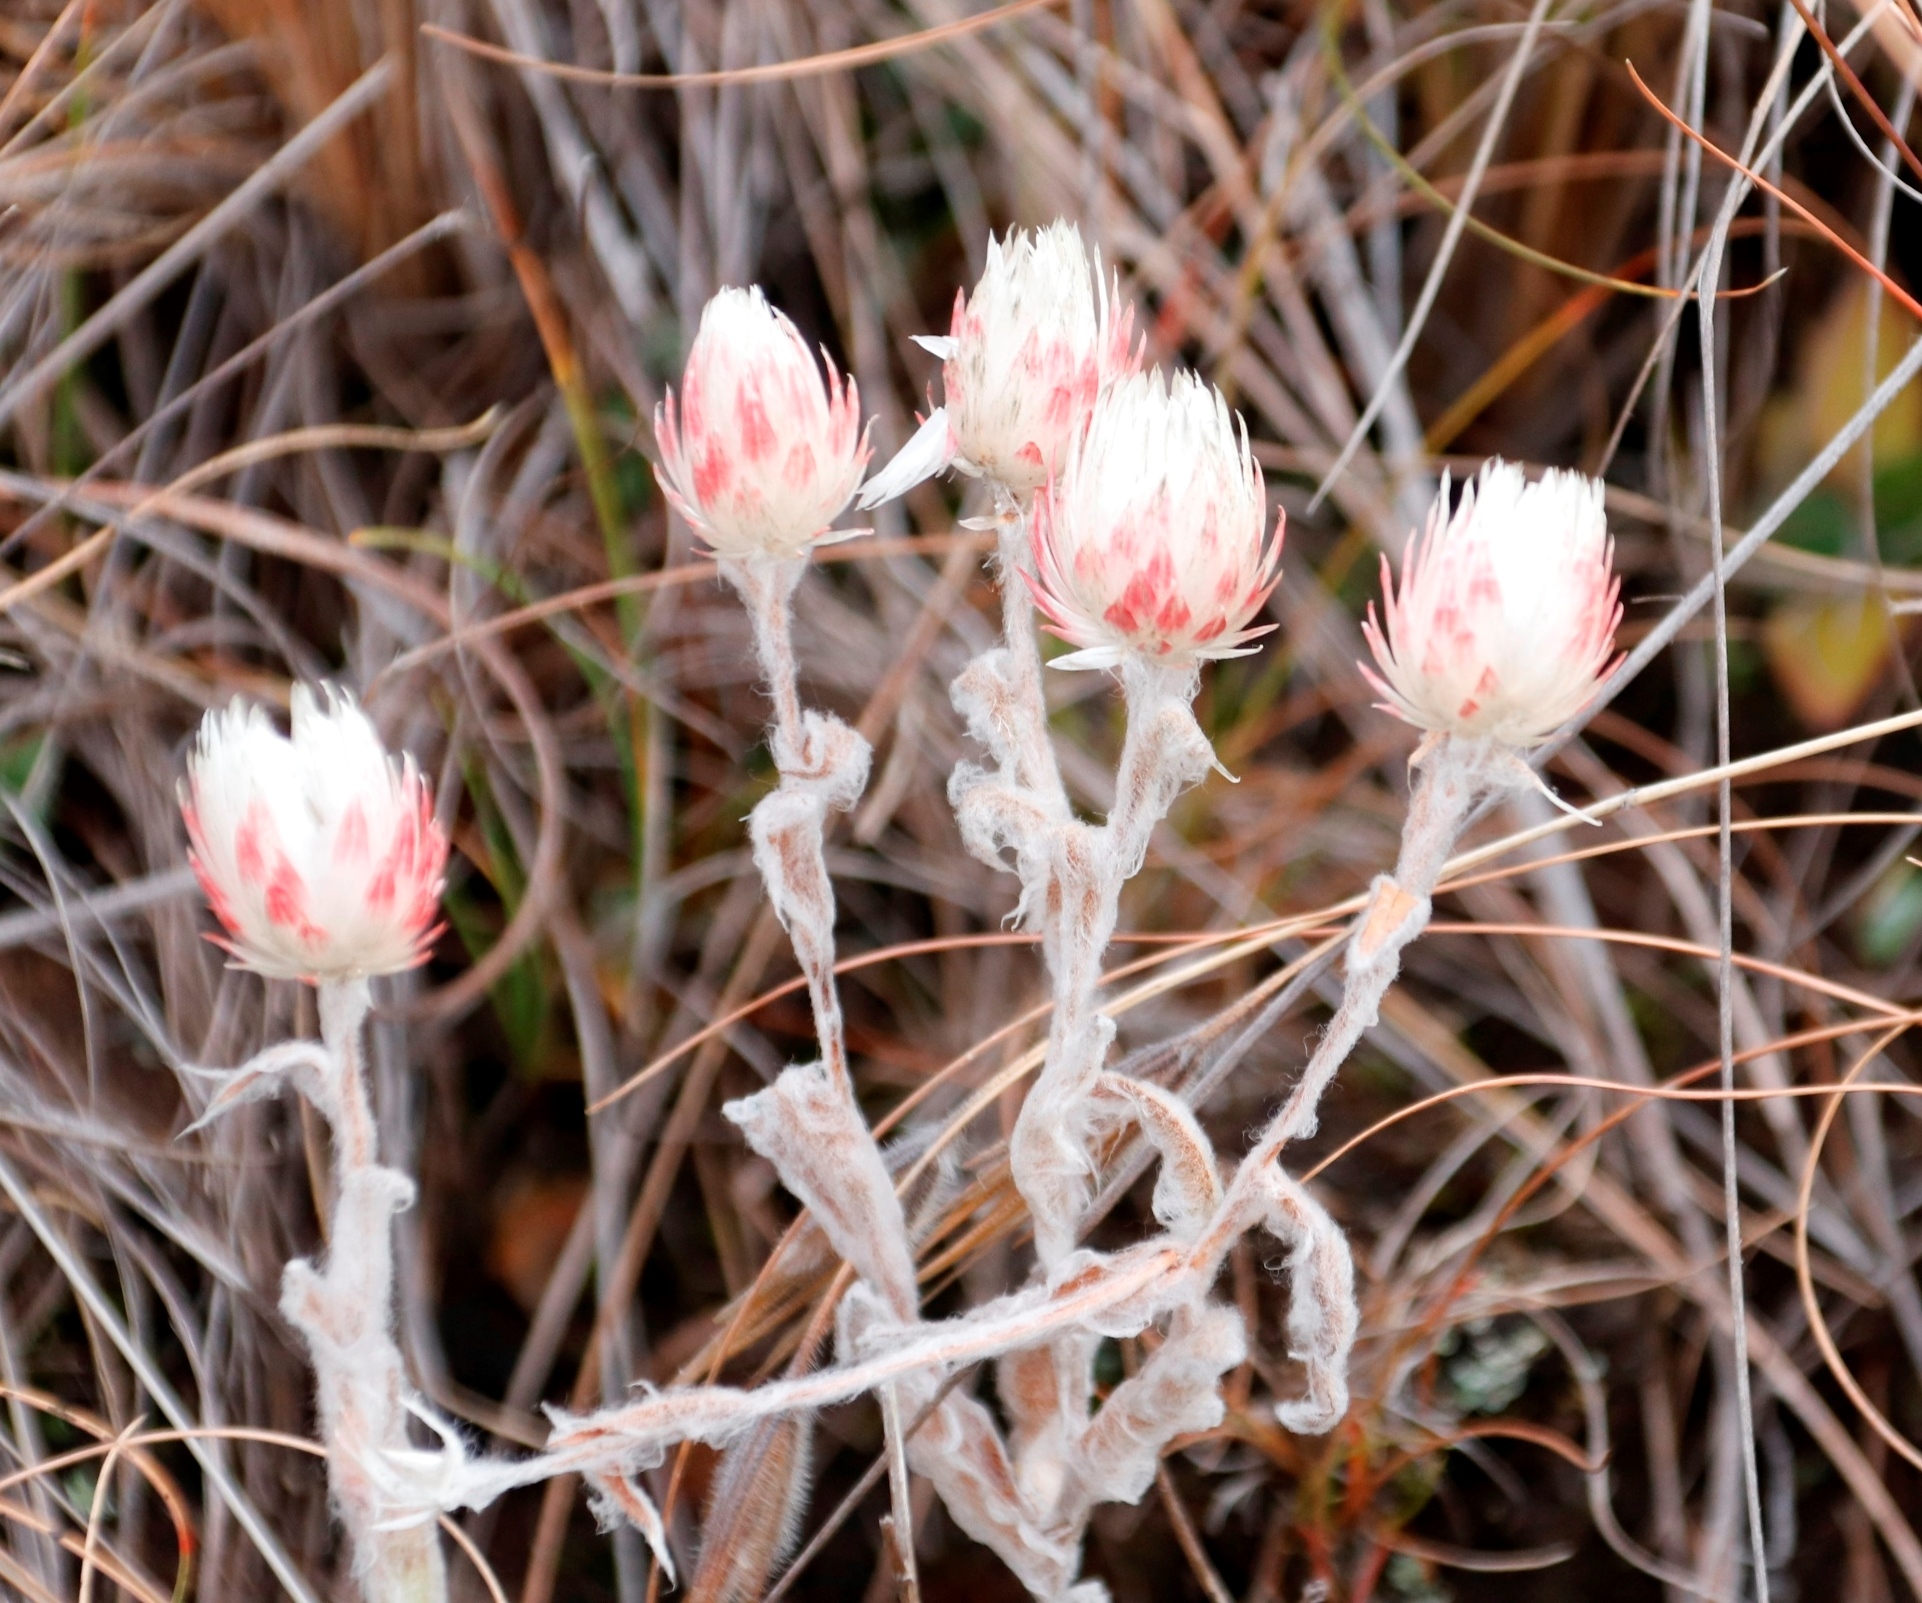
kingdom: Plantae
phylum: Tracheophyta
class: Magnoliopsida
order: Asterales
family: Asteraceae
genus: Helichrysum
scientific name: Helichrysum adenocarpum
